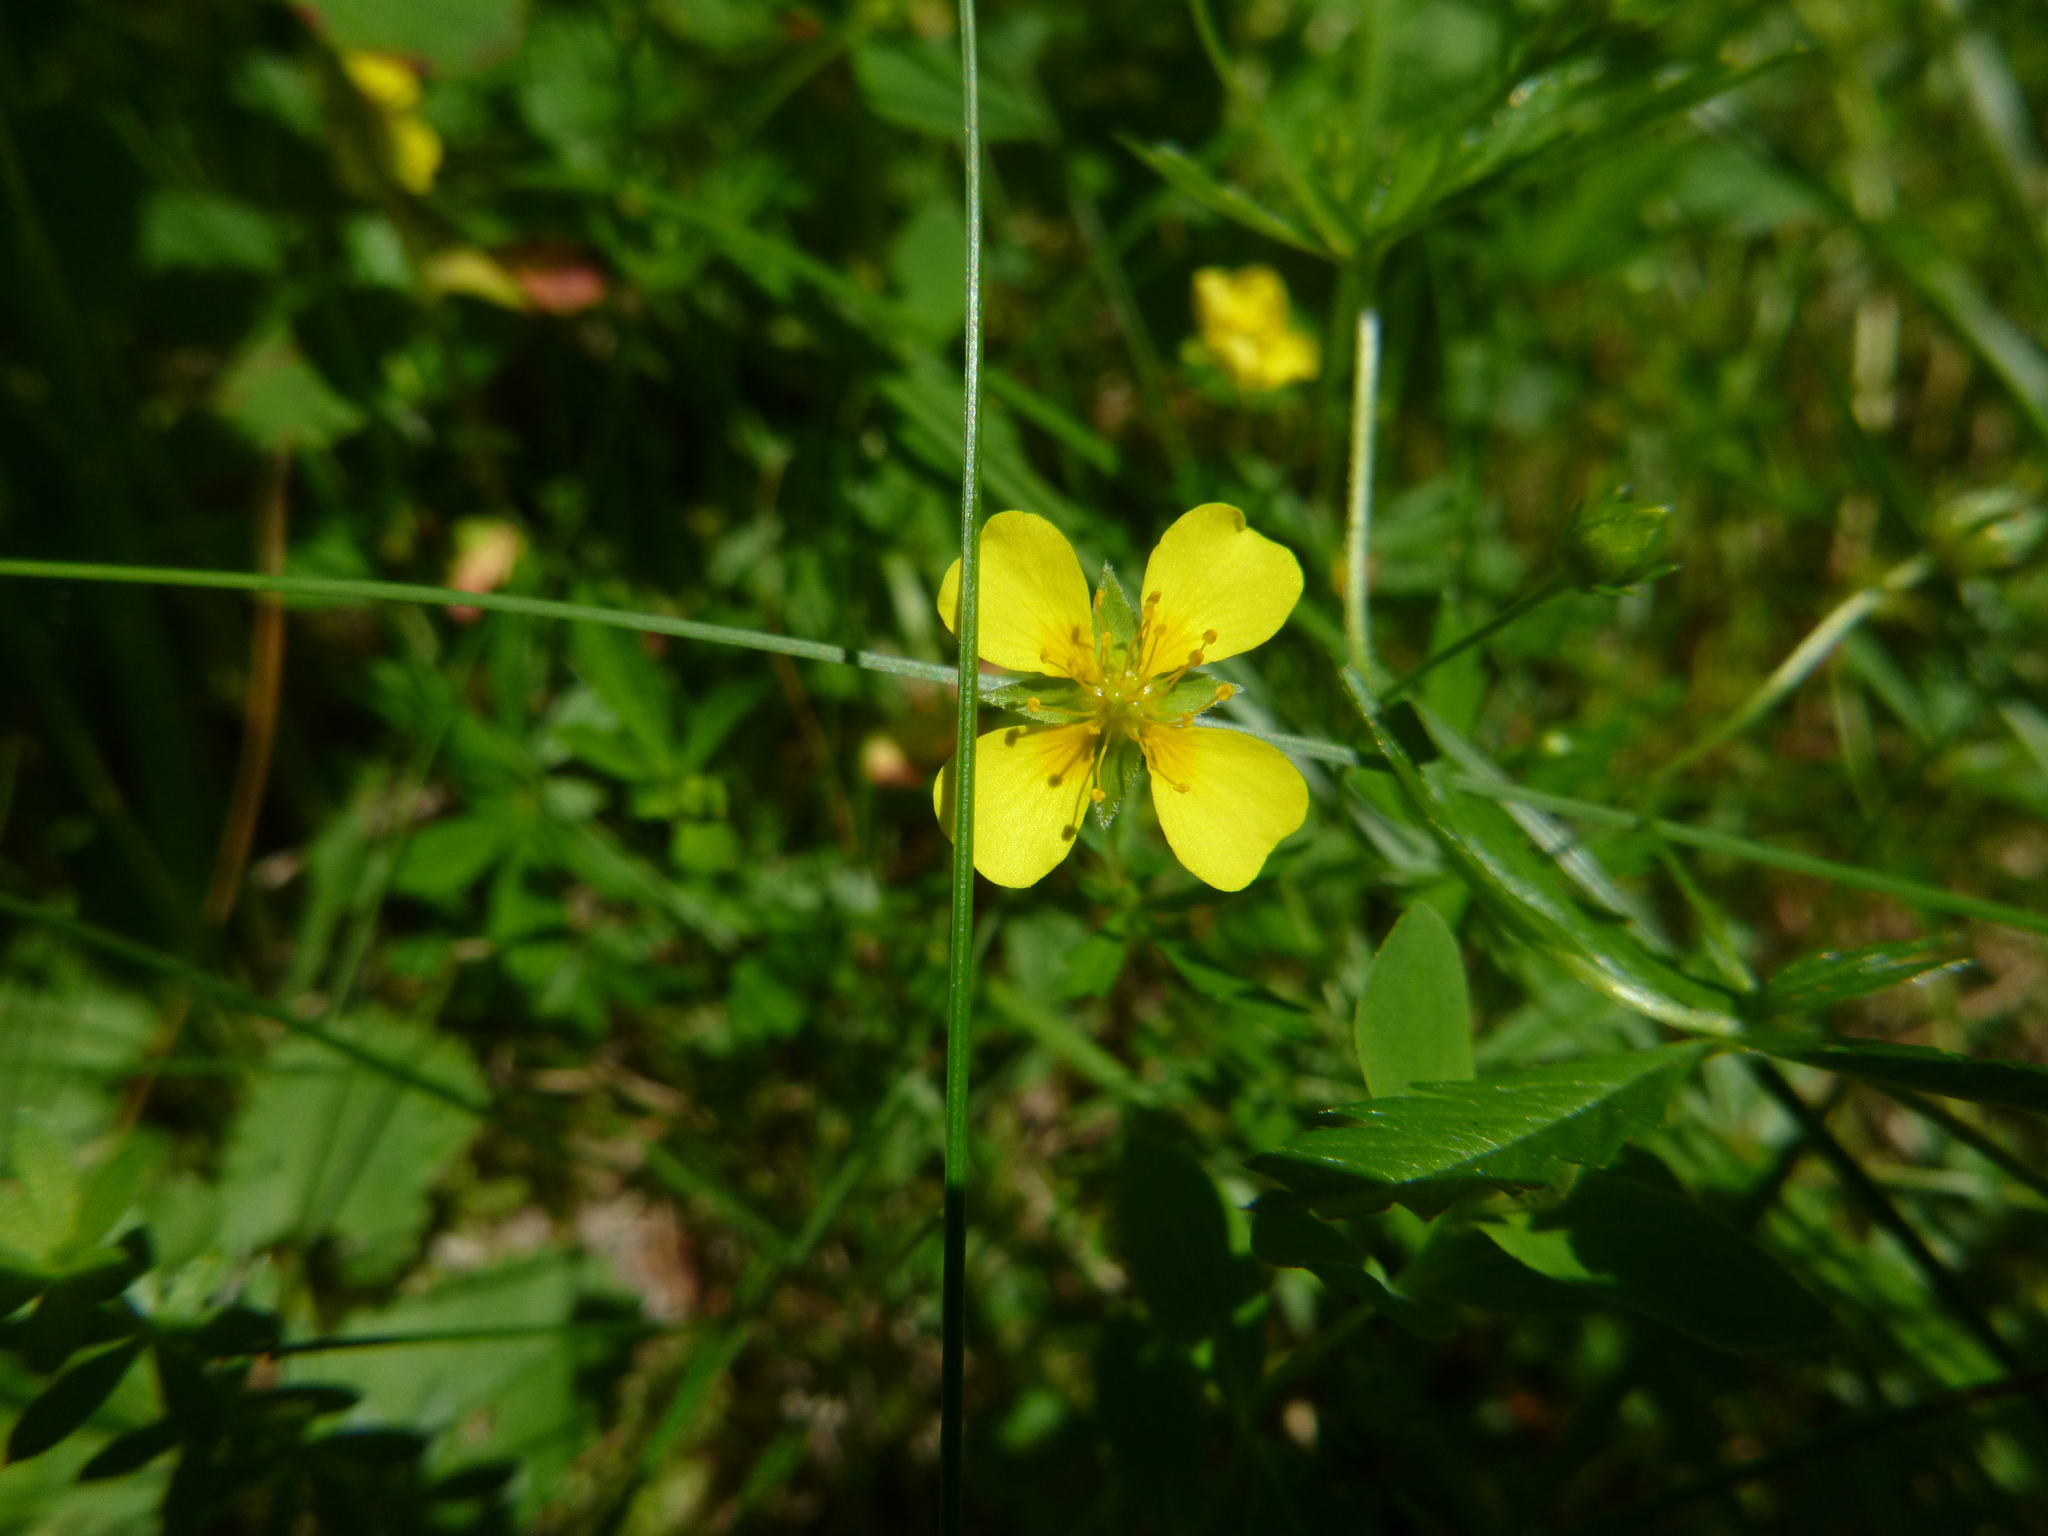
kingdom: Plantae
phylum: Tracheophyta
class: Magnoliopsida
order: Rosales
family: Rosaceae
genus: Potentilla
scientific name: Potentilla erecta
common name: Tormentil
